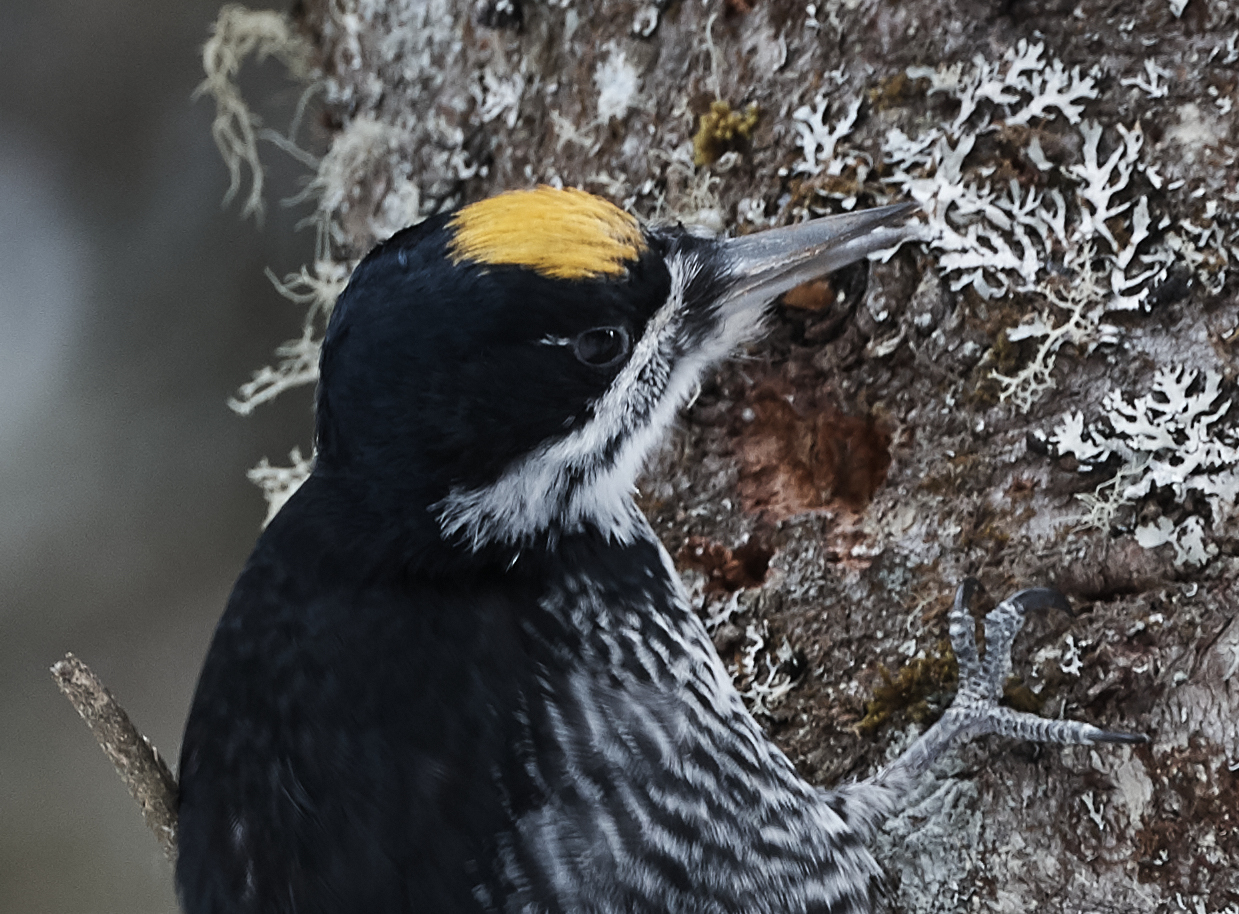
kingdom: Animalia
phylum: Chordata
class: Aves
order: Piciformes
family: Picidae
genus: Picoides
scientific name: Picoides arcticus
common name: Black-backed woodpecker
